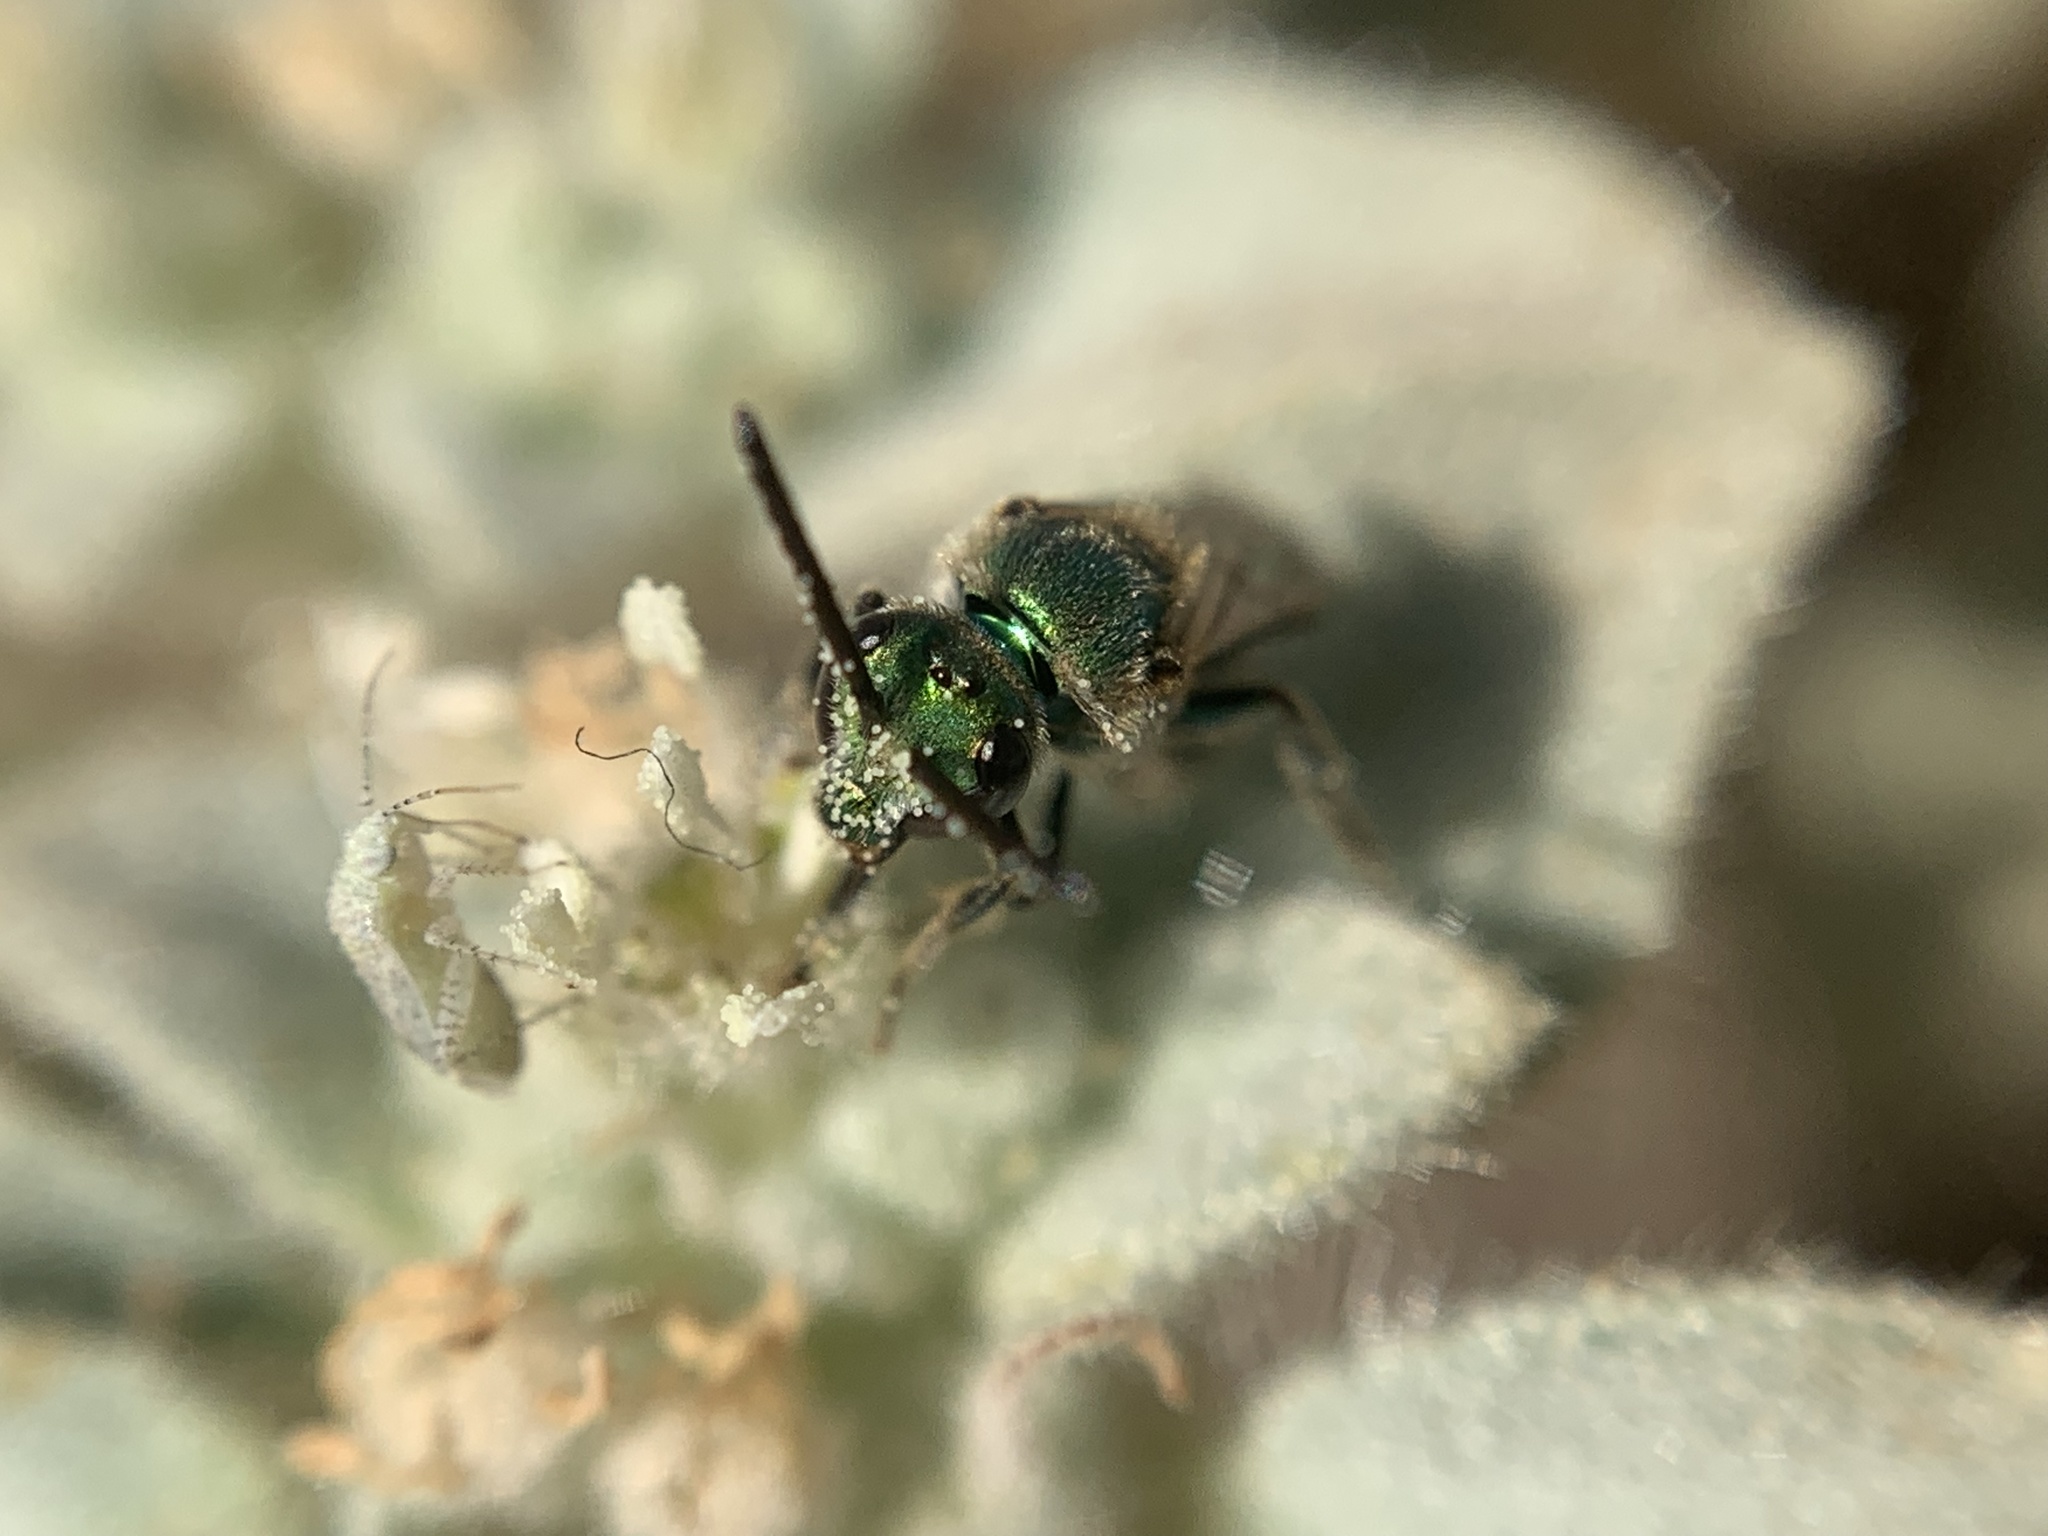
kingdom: Animalia
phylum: Arthropoda
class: Insecta
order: Hymenoptera
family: Halictidae
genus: Augochlorella
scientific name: Augochlorella pomoniella
